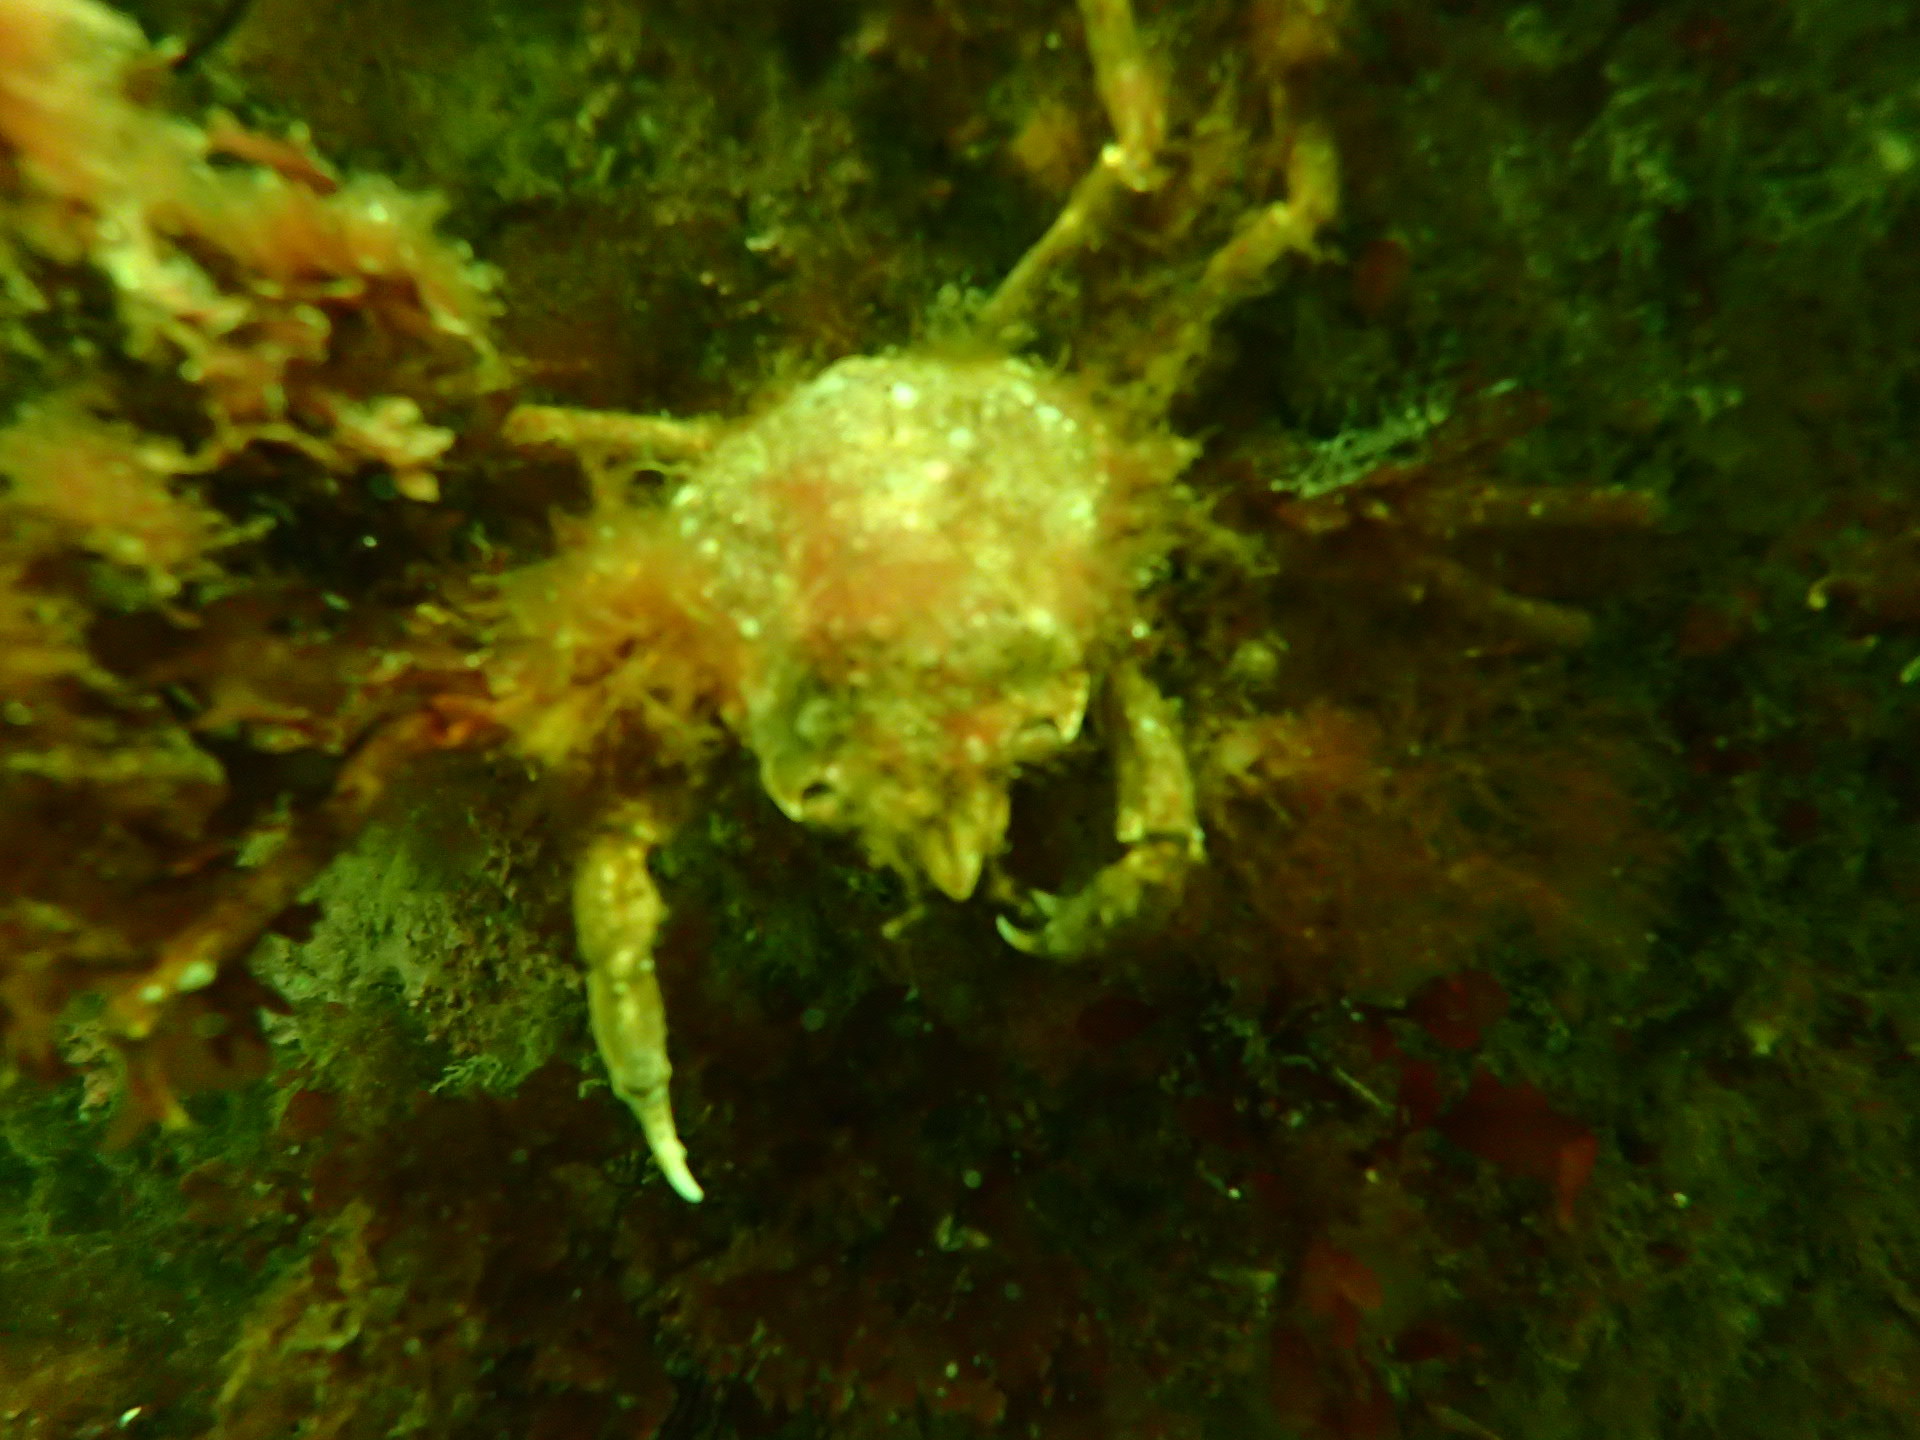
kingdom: Animalia
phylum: Arthropoda
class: Malacostraca
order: Decapoda
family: Oregoniidae
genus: Hyas
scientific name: Hyas araneus
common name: Great spider crab
